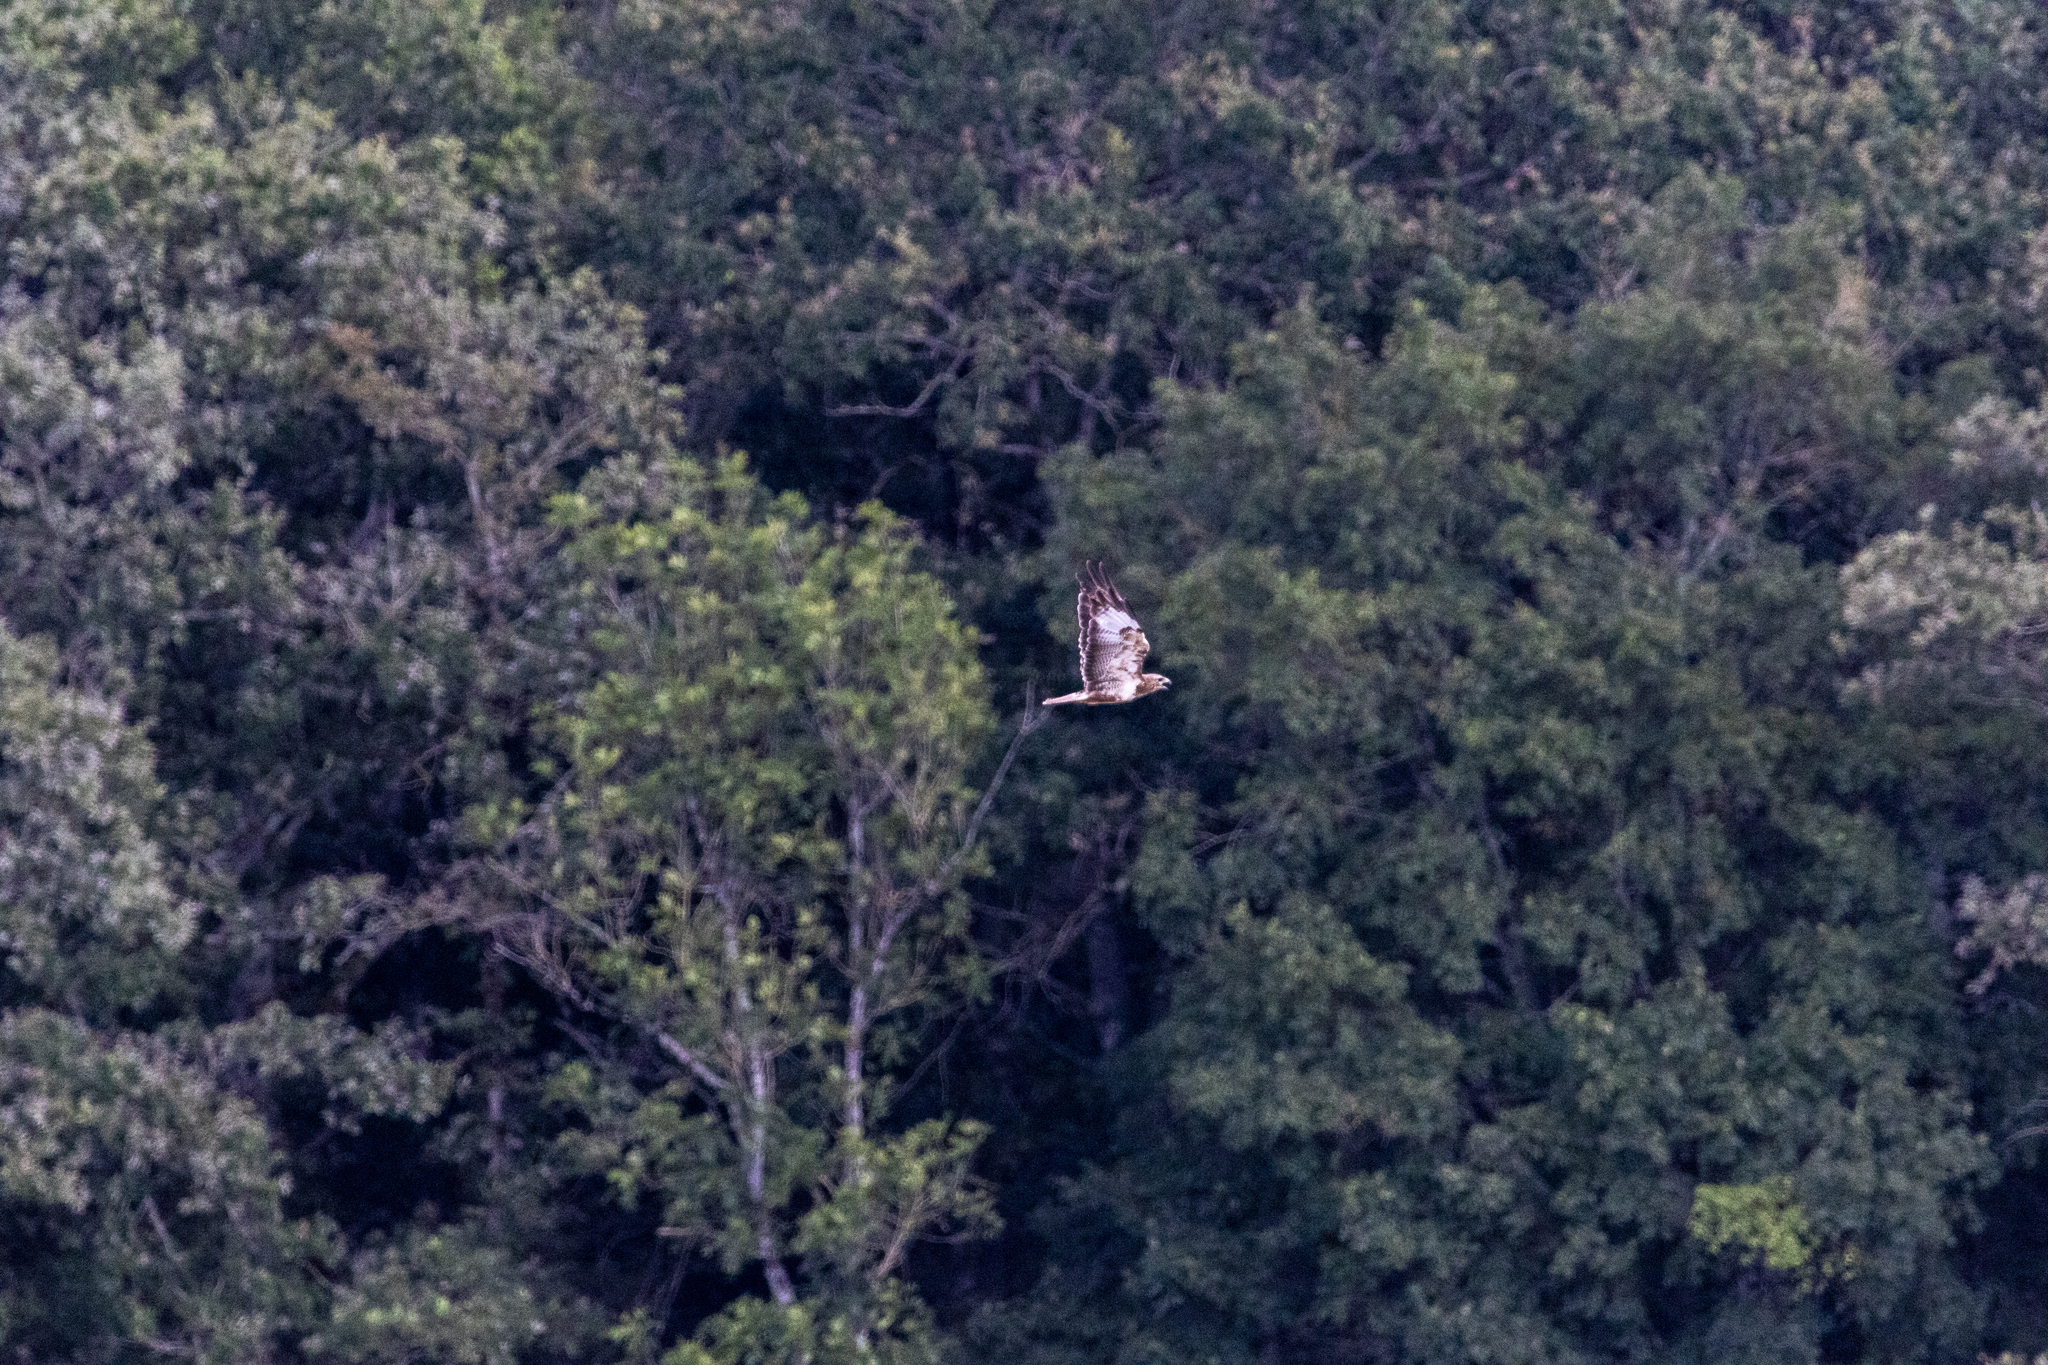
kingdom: Animalia
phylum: Chordata
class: Aves
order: Accipitriformes
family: Accipitridae
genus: Buteo
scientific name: Buteo buteo
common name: Common buzzard
